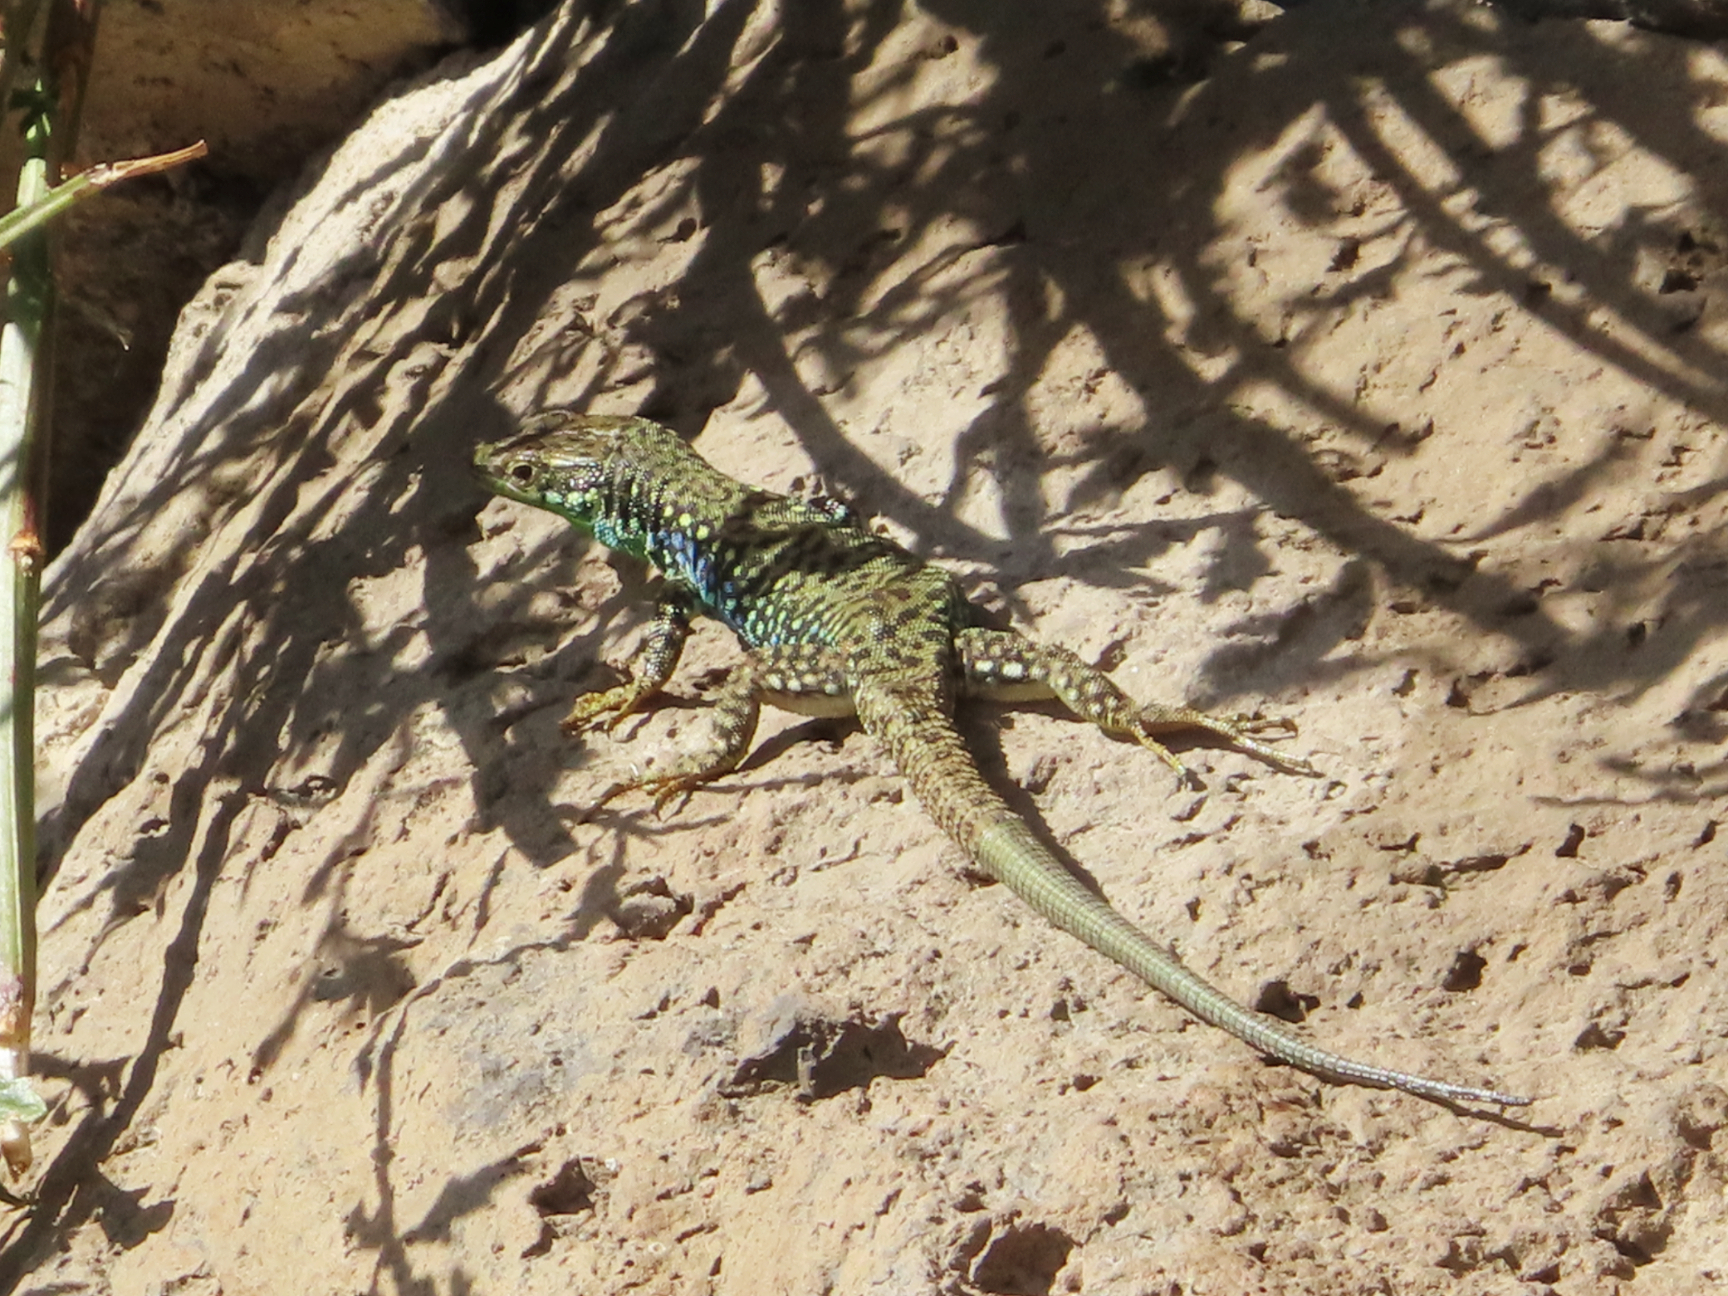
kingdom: Animalia
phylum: Chordata
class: Squamata
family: Lacertidae
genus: Darevskia
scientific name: Darevskia
